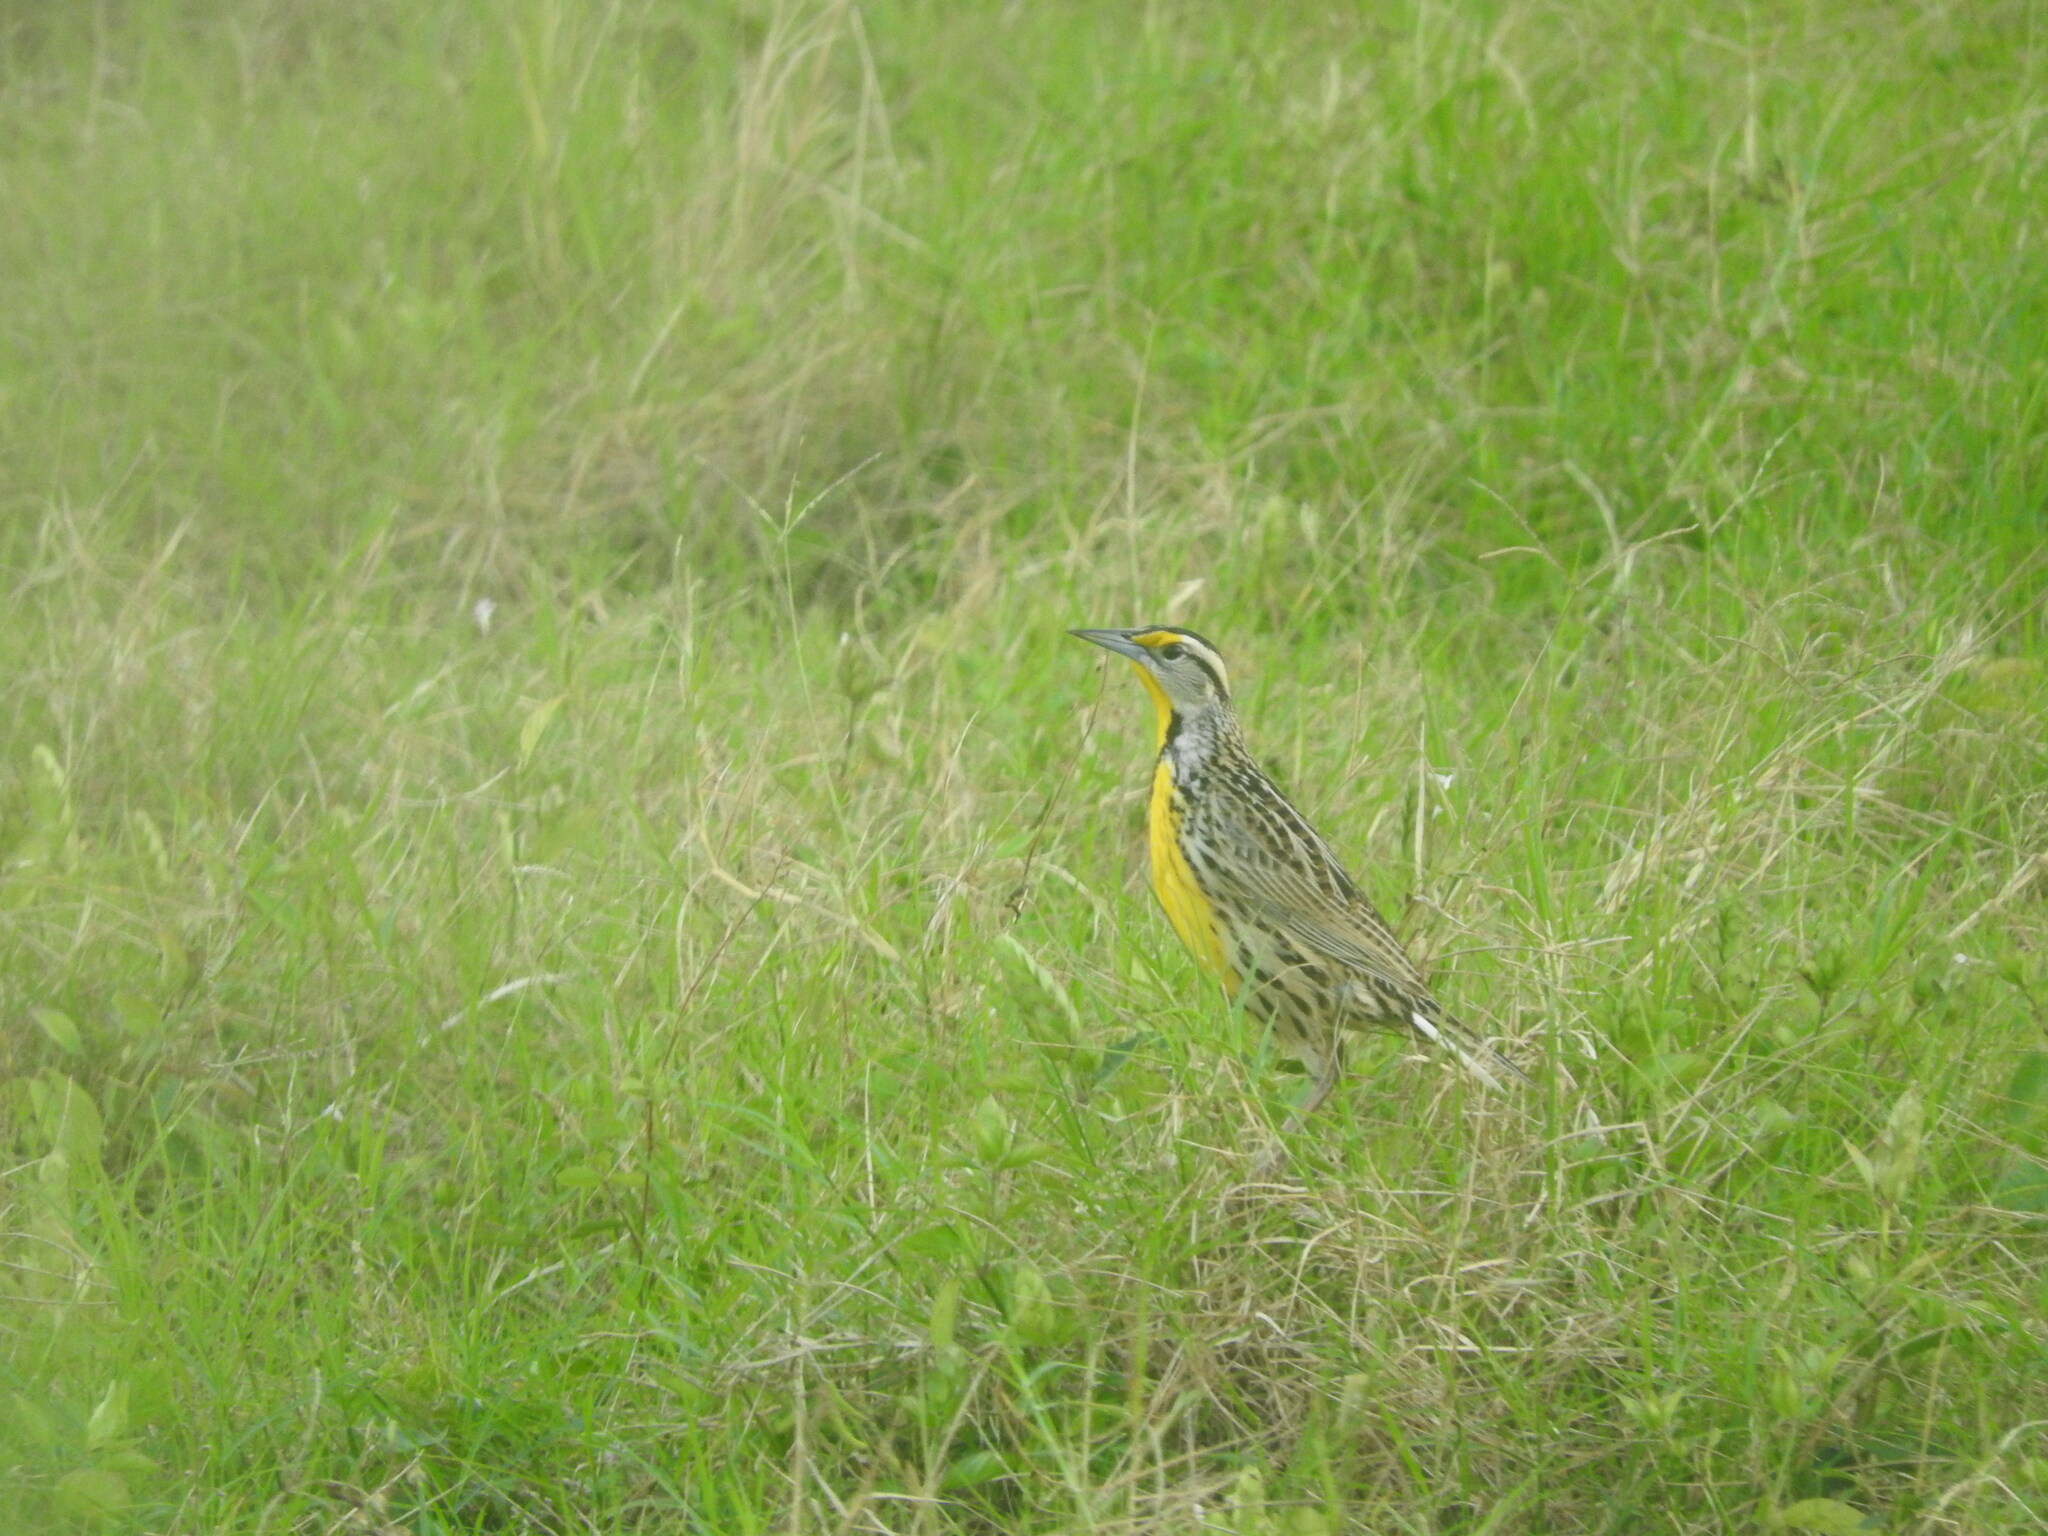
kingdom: Animalia
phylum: Chordata
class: Aves
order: Passeriformes
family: Icteridae
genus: Sturnella
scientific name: Sturnella magna
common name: Eastern meadowlark
